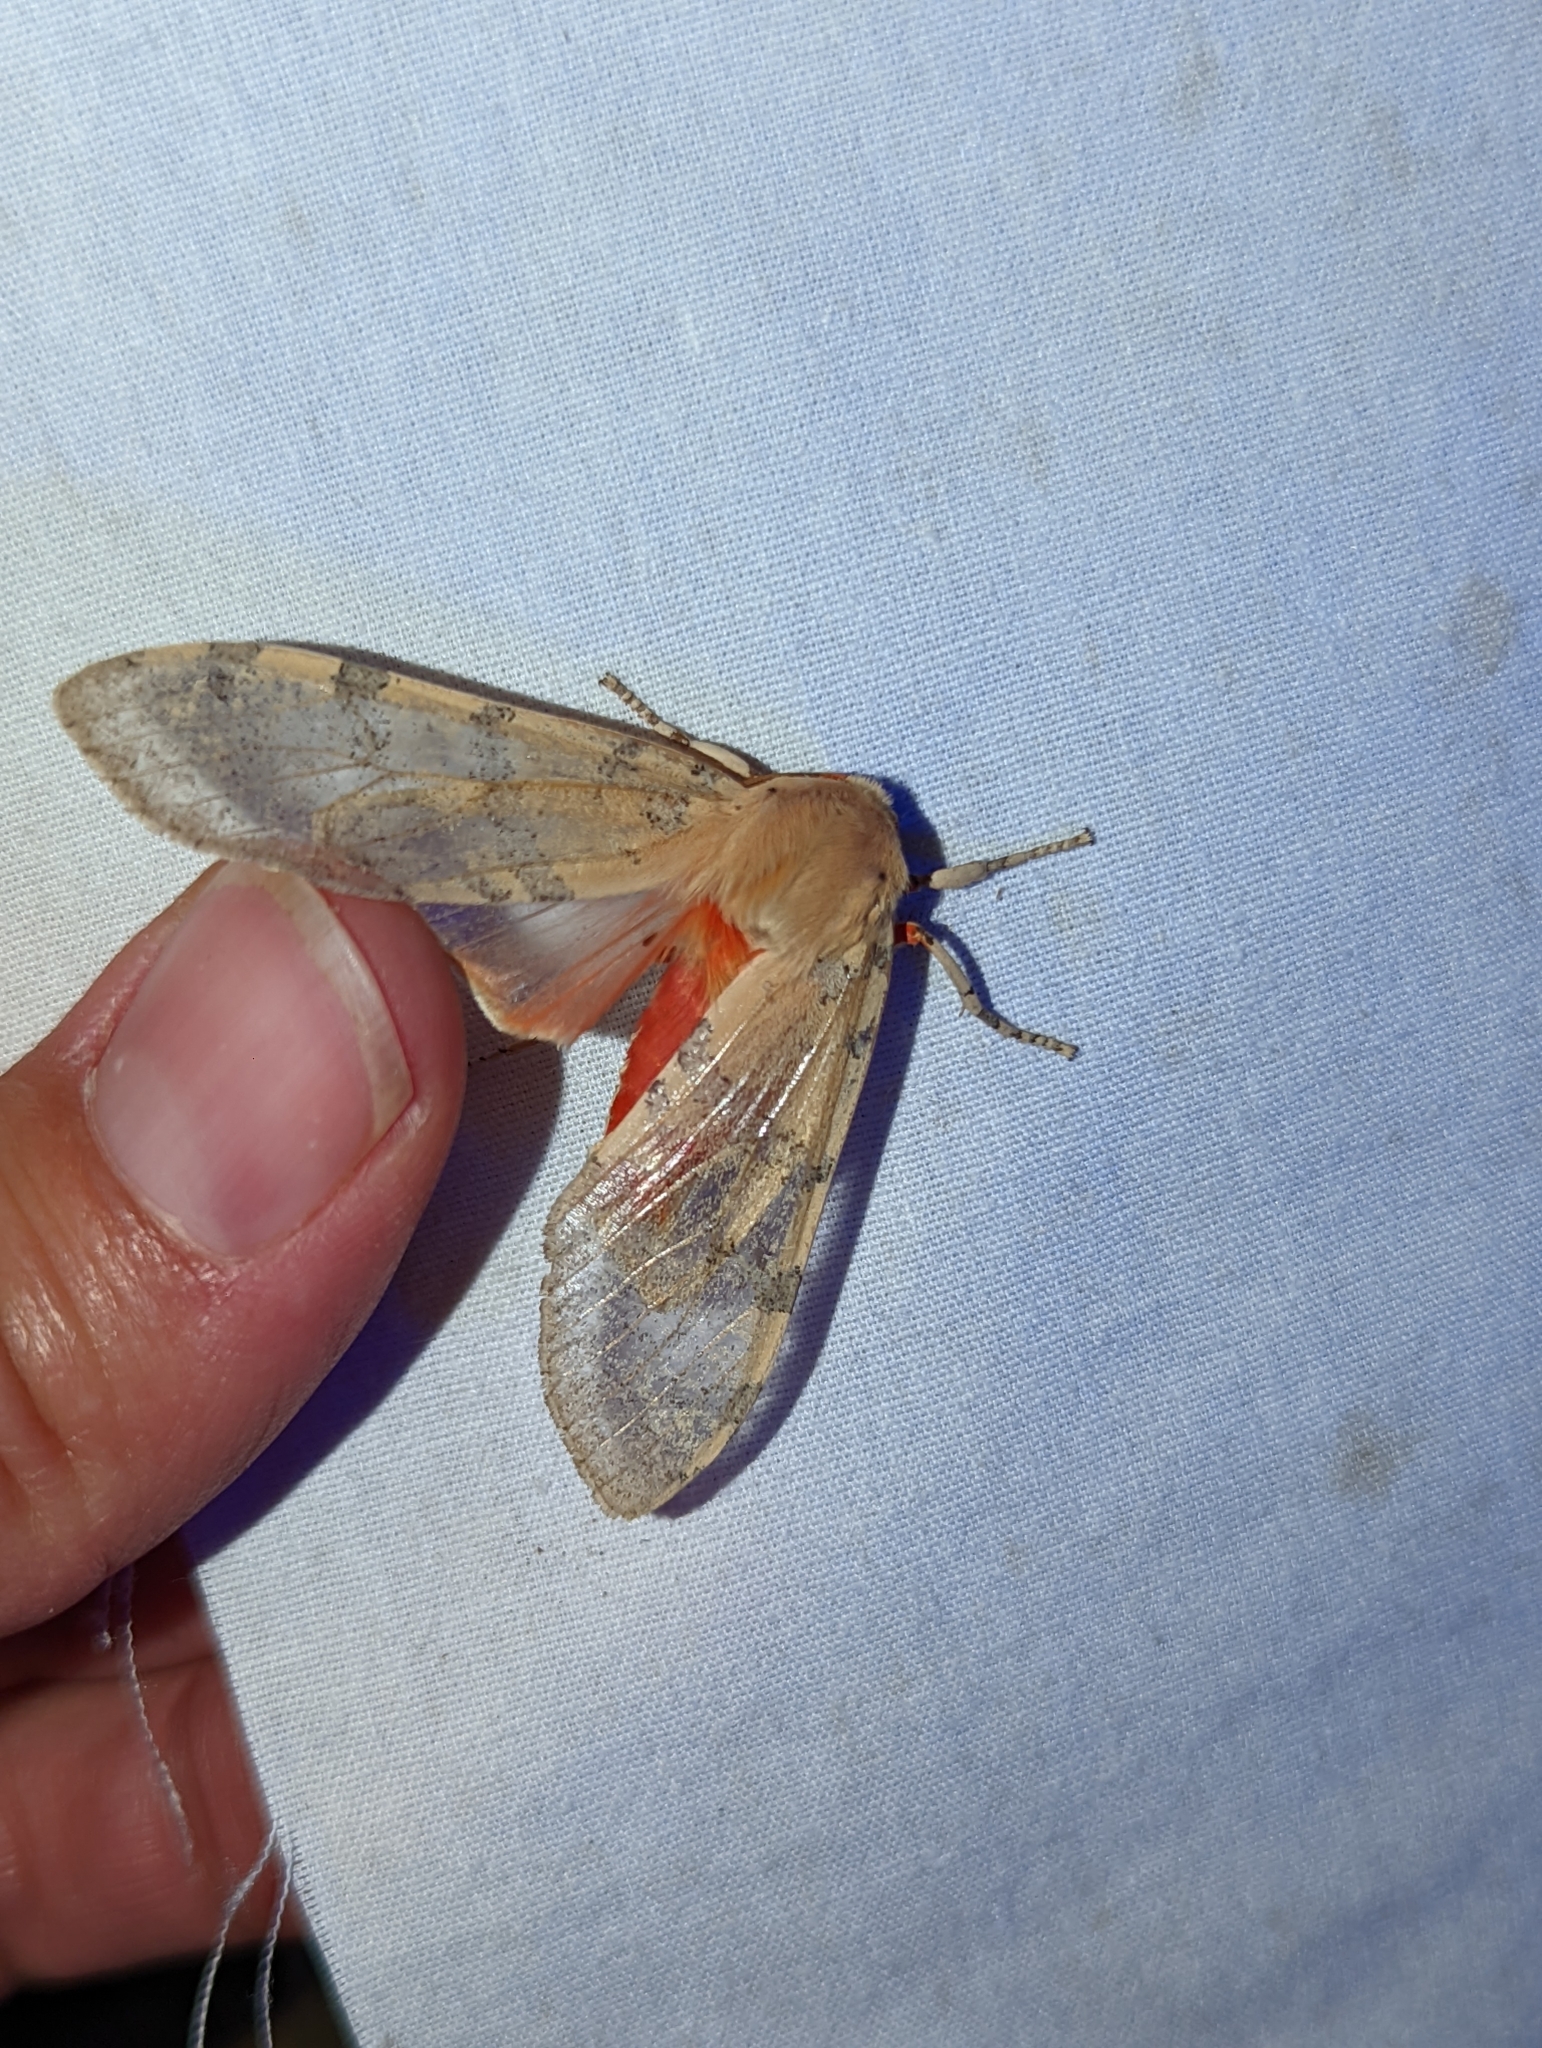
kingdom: Animalia
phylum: Arthropoda
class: Insecta
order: Lepidoptera
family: Erebidae
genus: Hemihyalea
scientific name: Hemihyalea edwardsii
